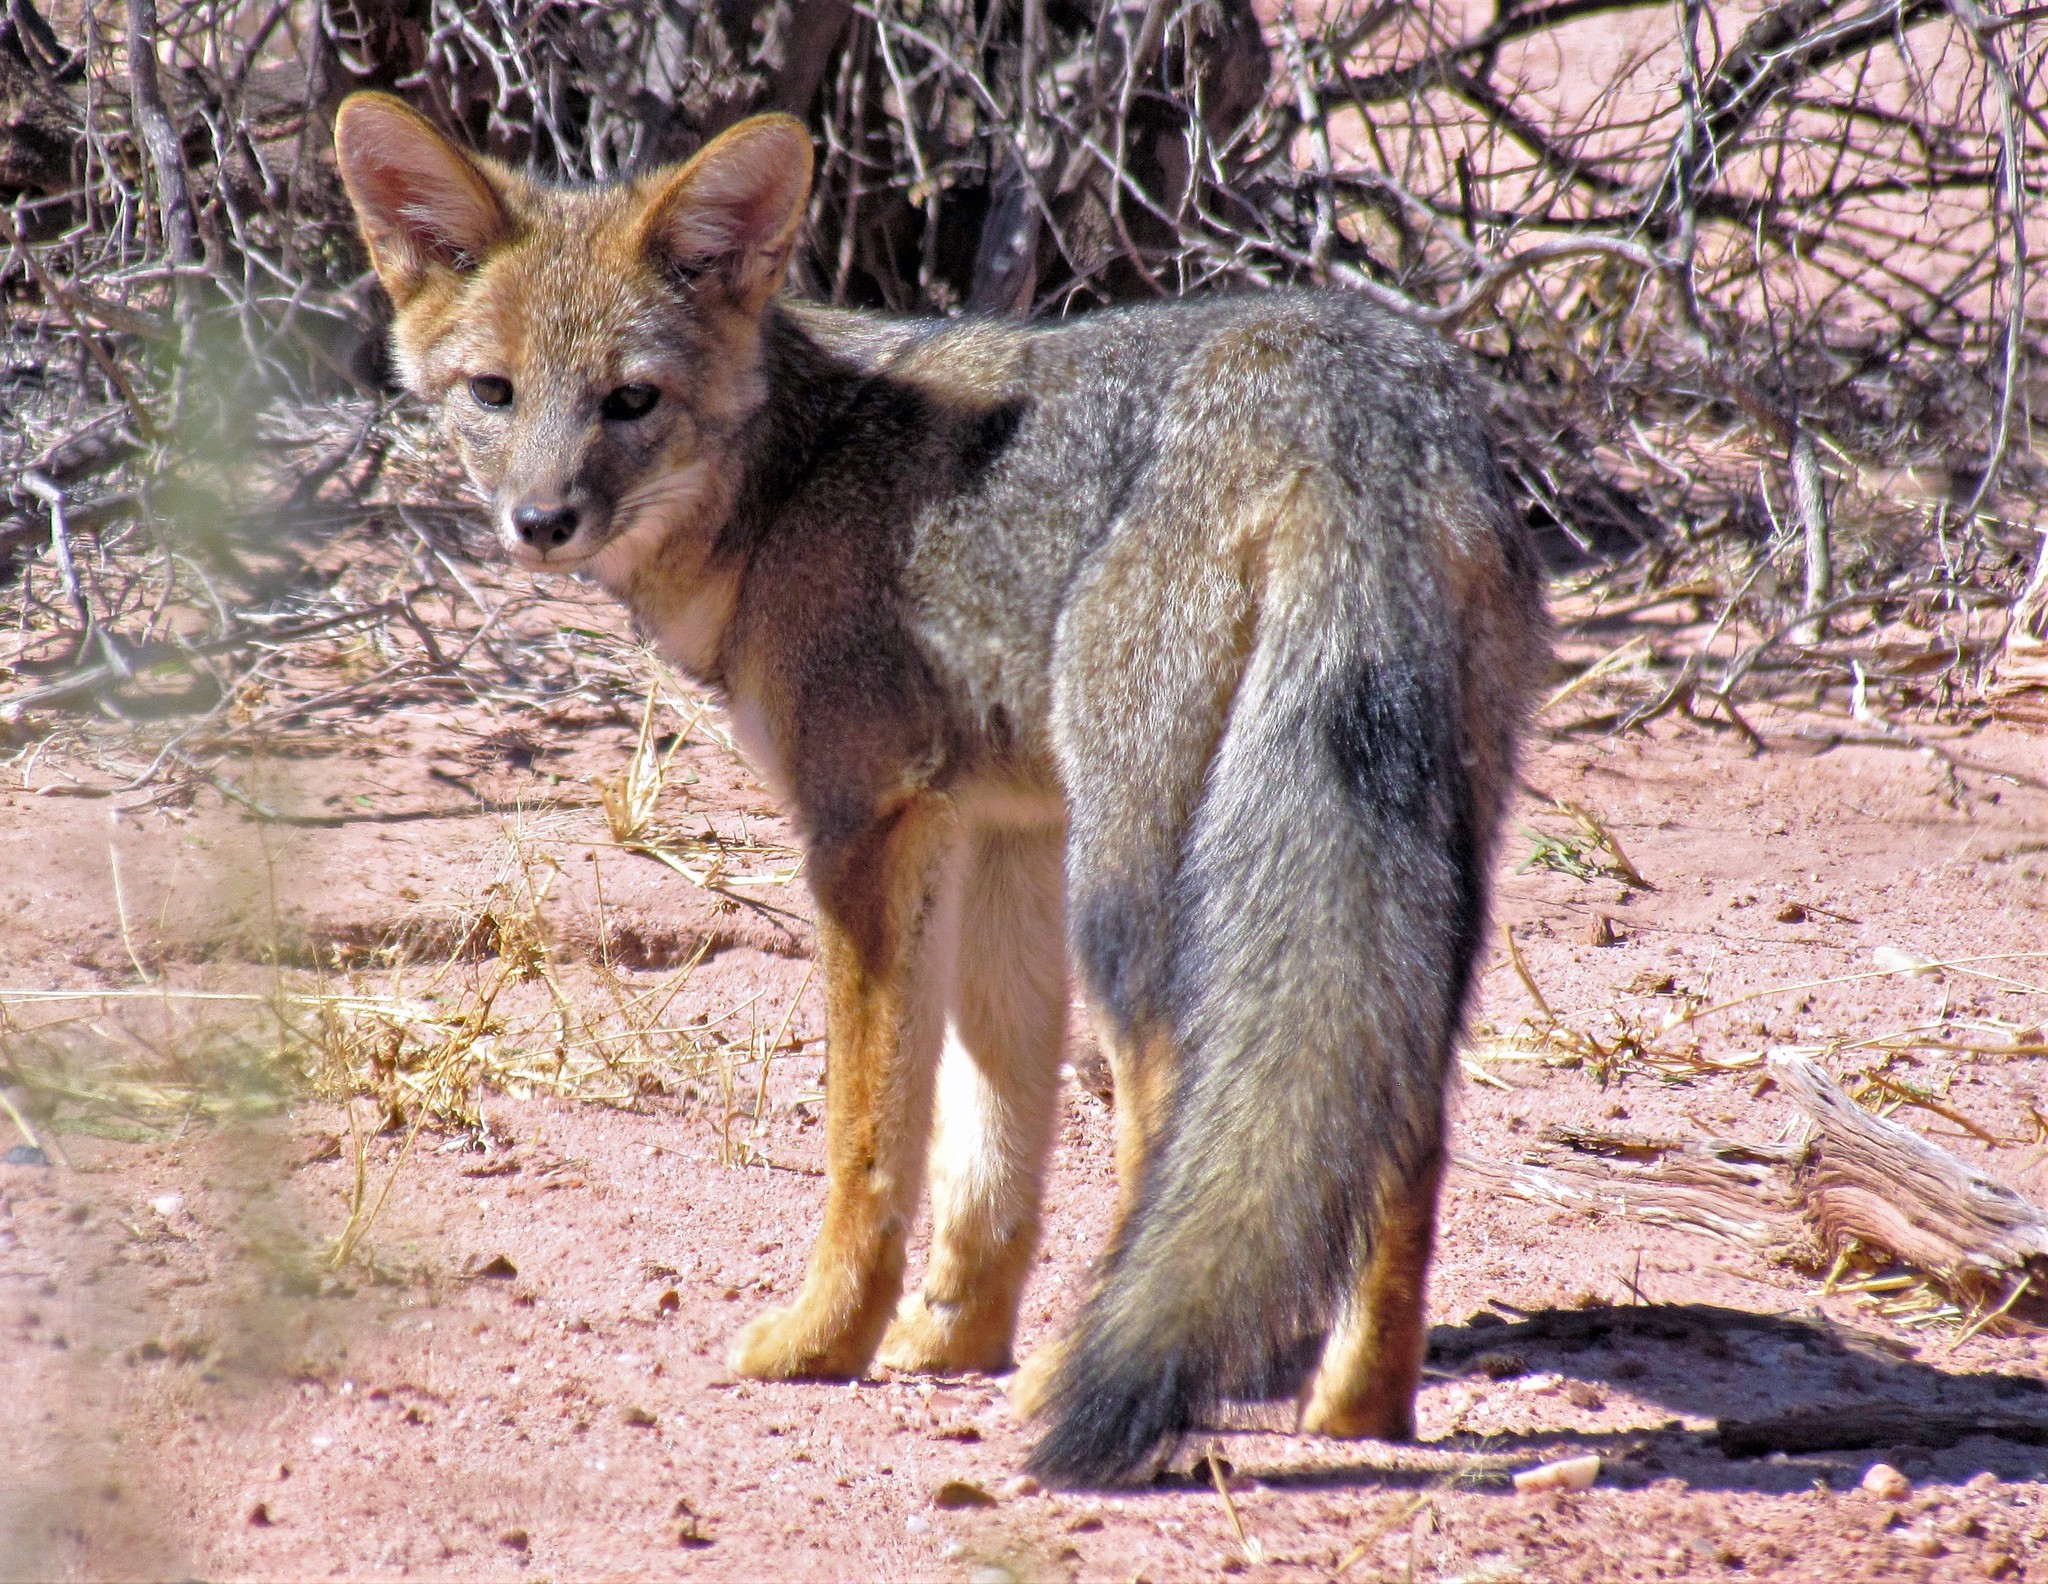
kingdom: Animalia
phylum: Chordata
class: Mammalia
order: Carnivora
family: Canidae
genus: Lycalopex
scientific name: Lycalopex gymnocercus
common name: Pampas fox
